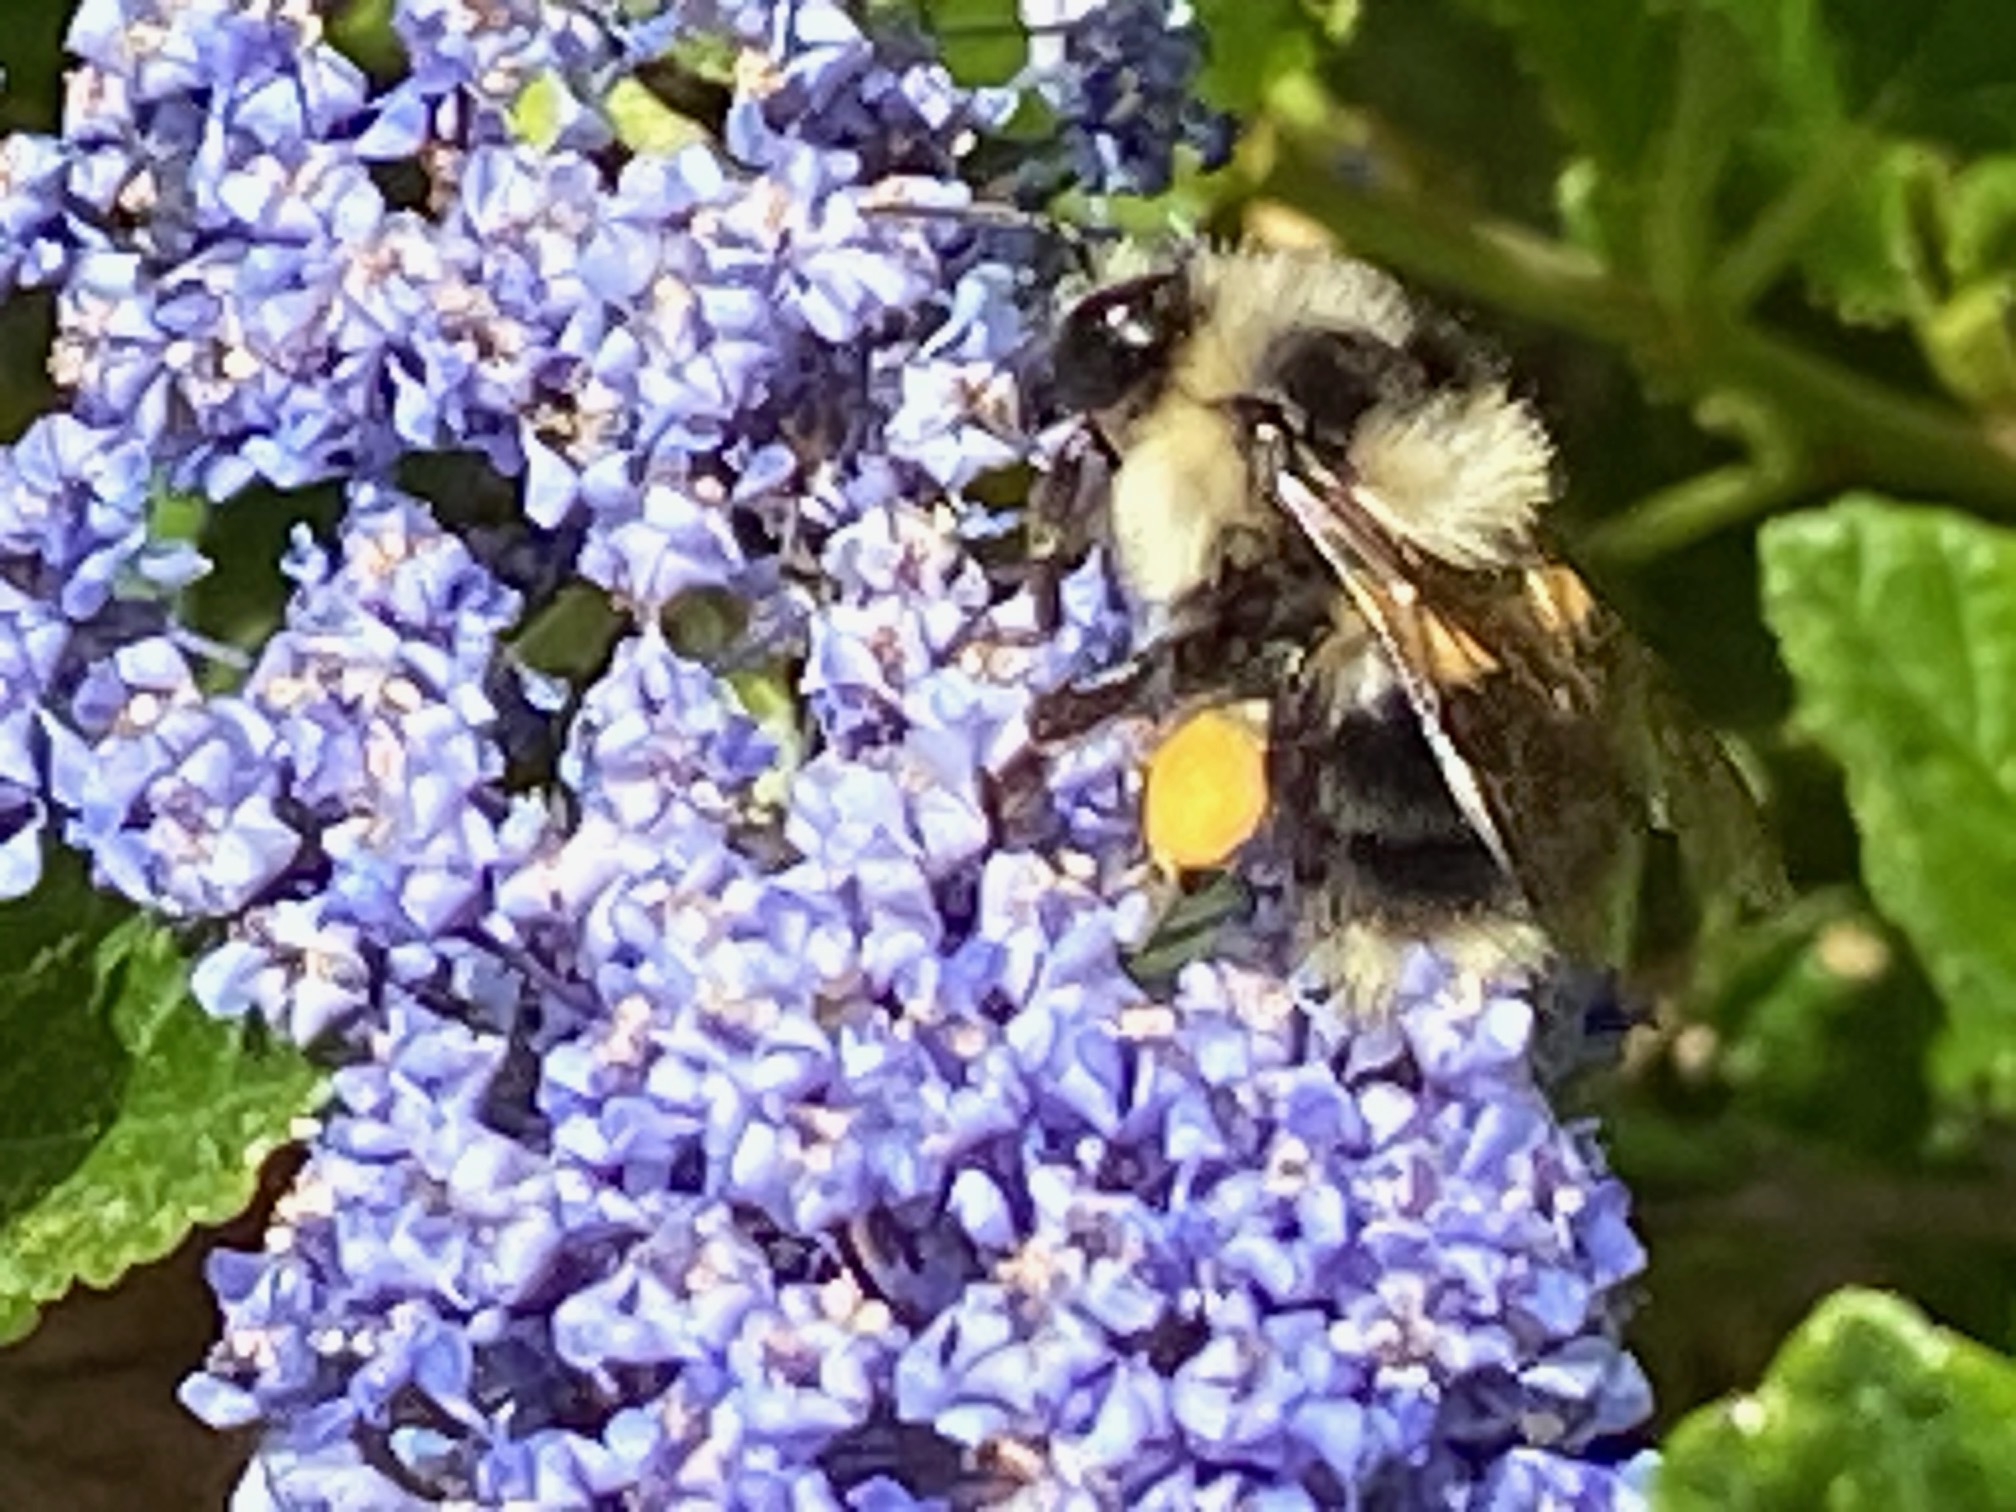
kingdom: Animalia
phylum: Arthropoda
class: Insecta
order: Hymenoptera
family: Apidae
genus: Bombus
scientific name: Bombus melanopygus
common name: Black tail bumble bee
